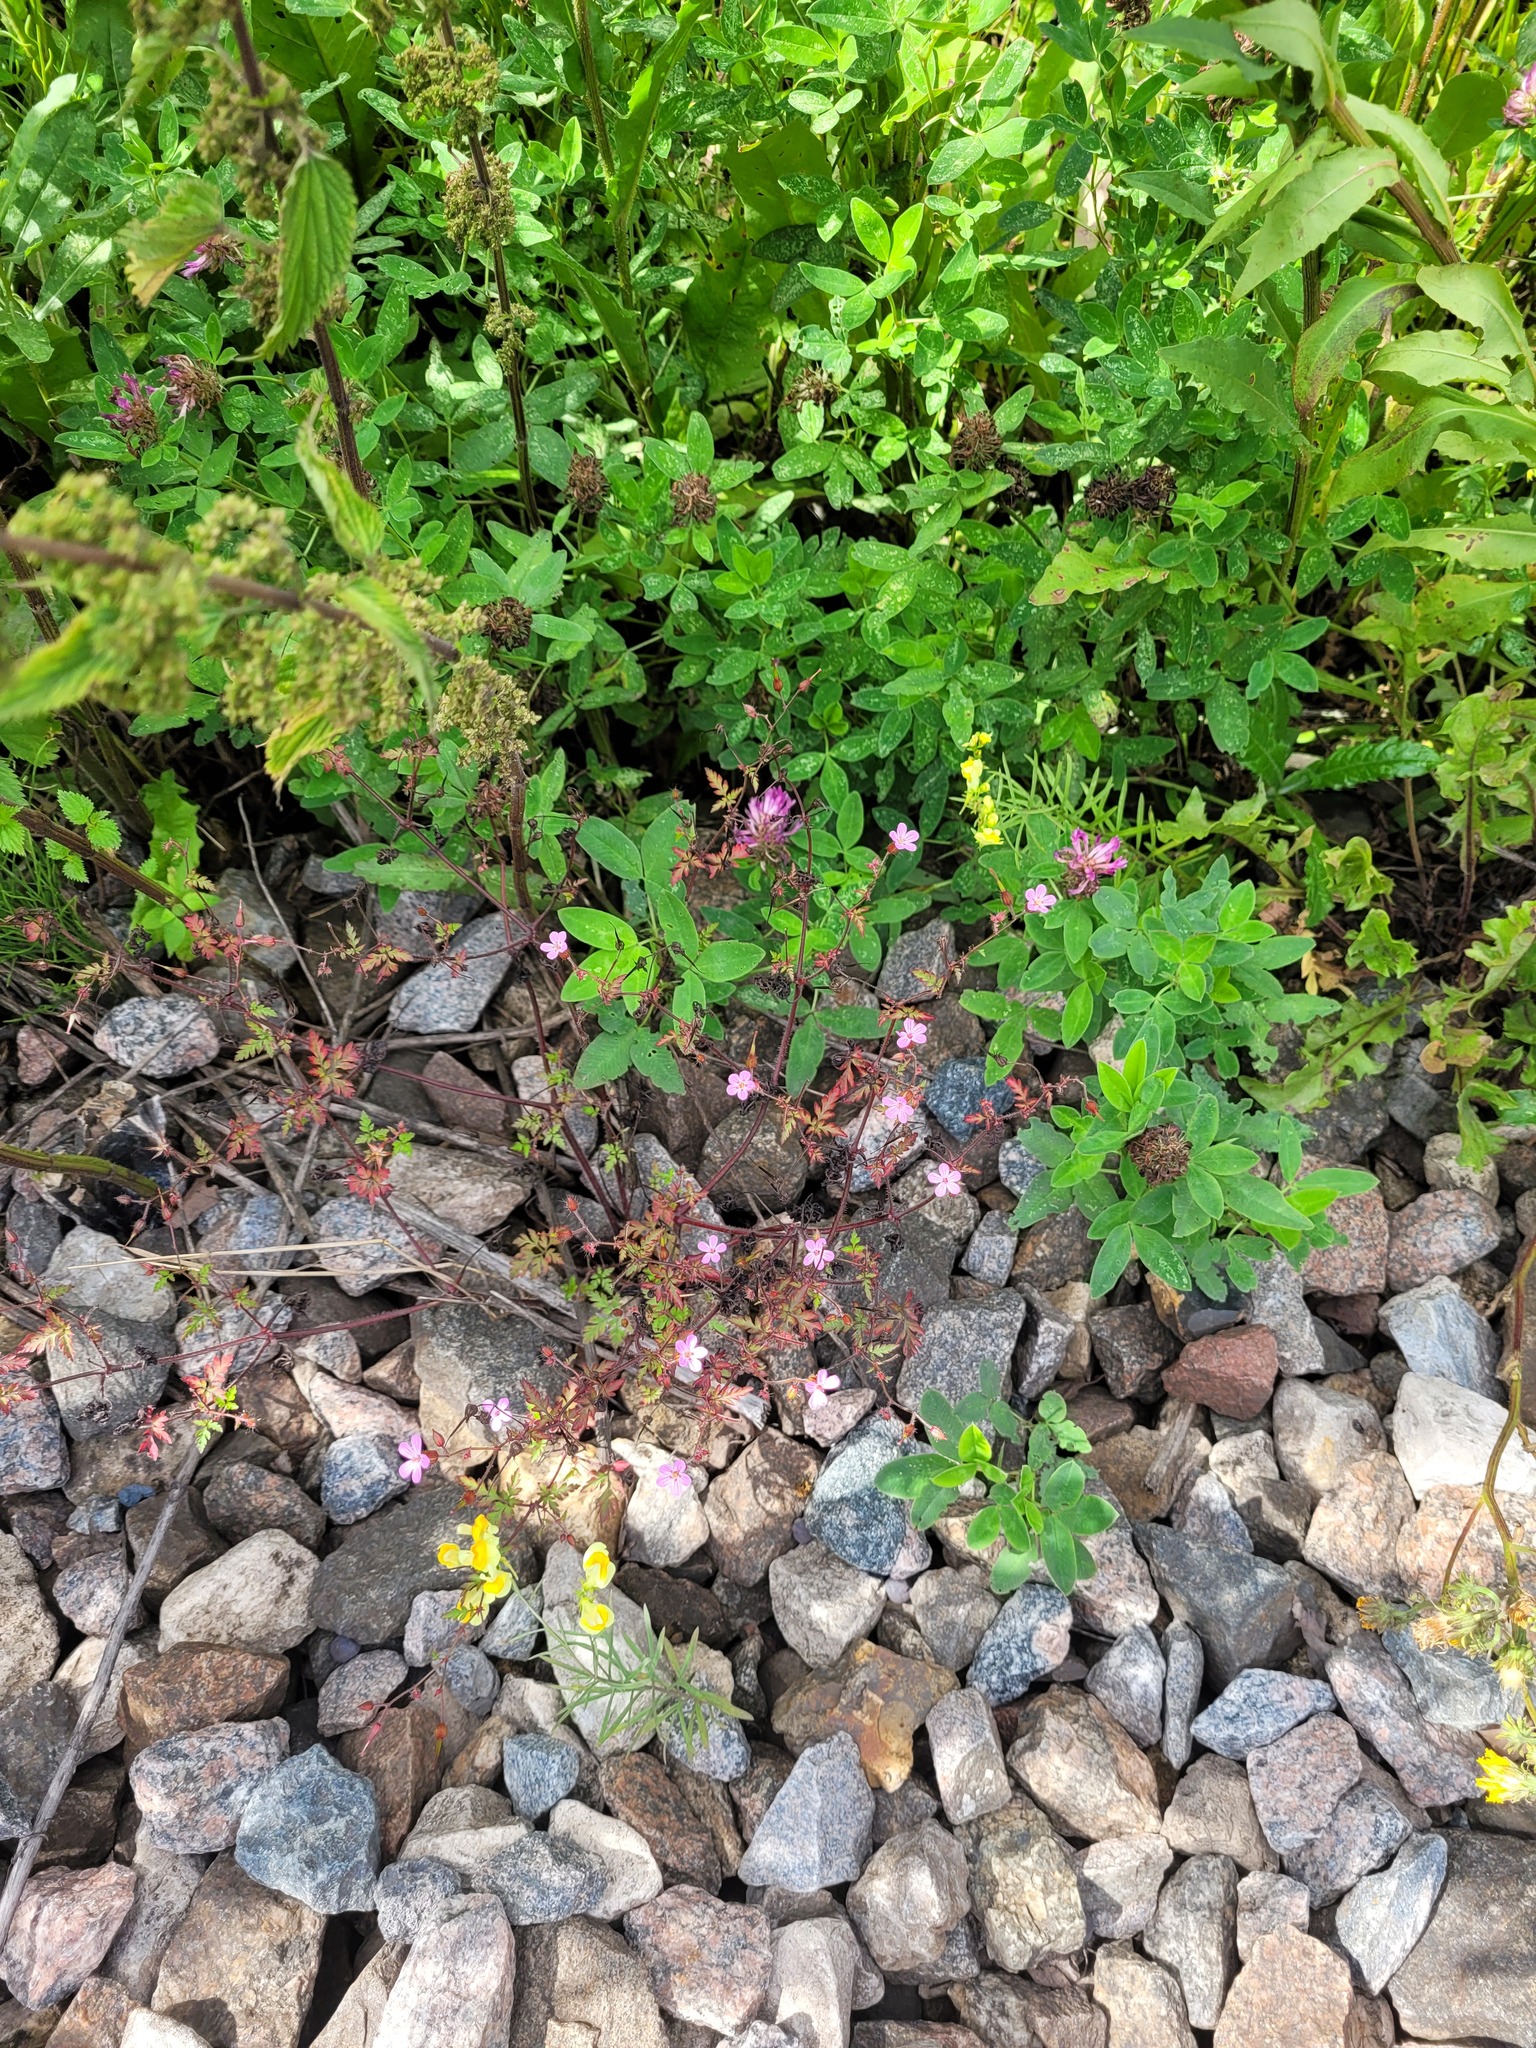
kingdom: Plantae
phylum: Tracheophyta
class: Magnoliopsida
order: Geraniales
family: Geraniaceae
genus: Geranium
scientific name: Geranium robertianum
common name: Herb-robert
